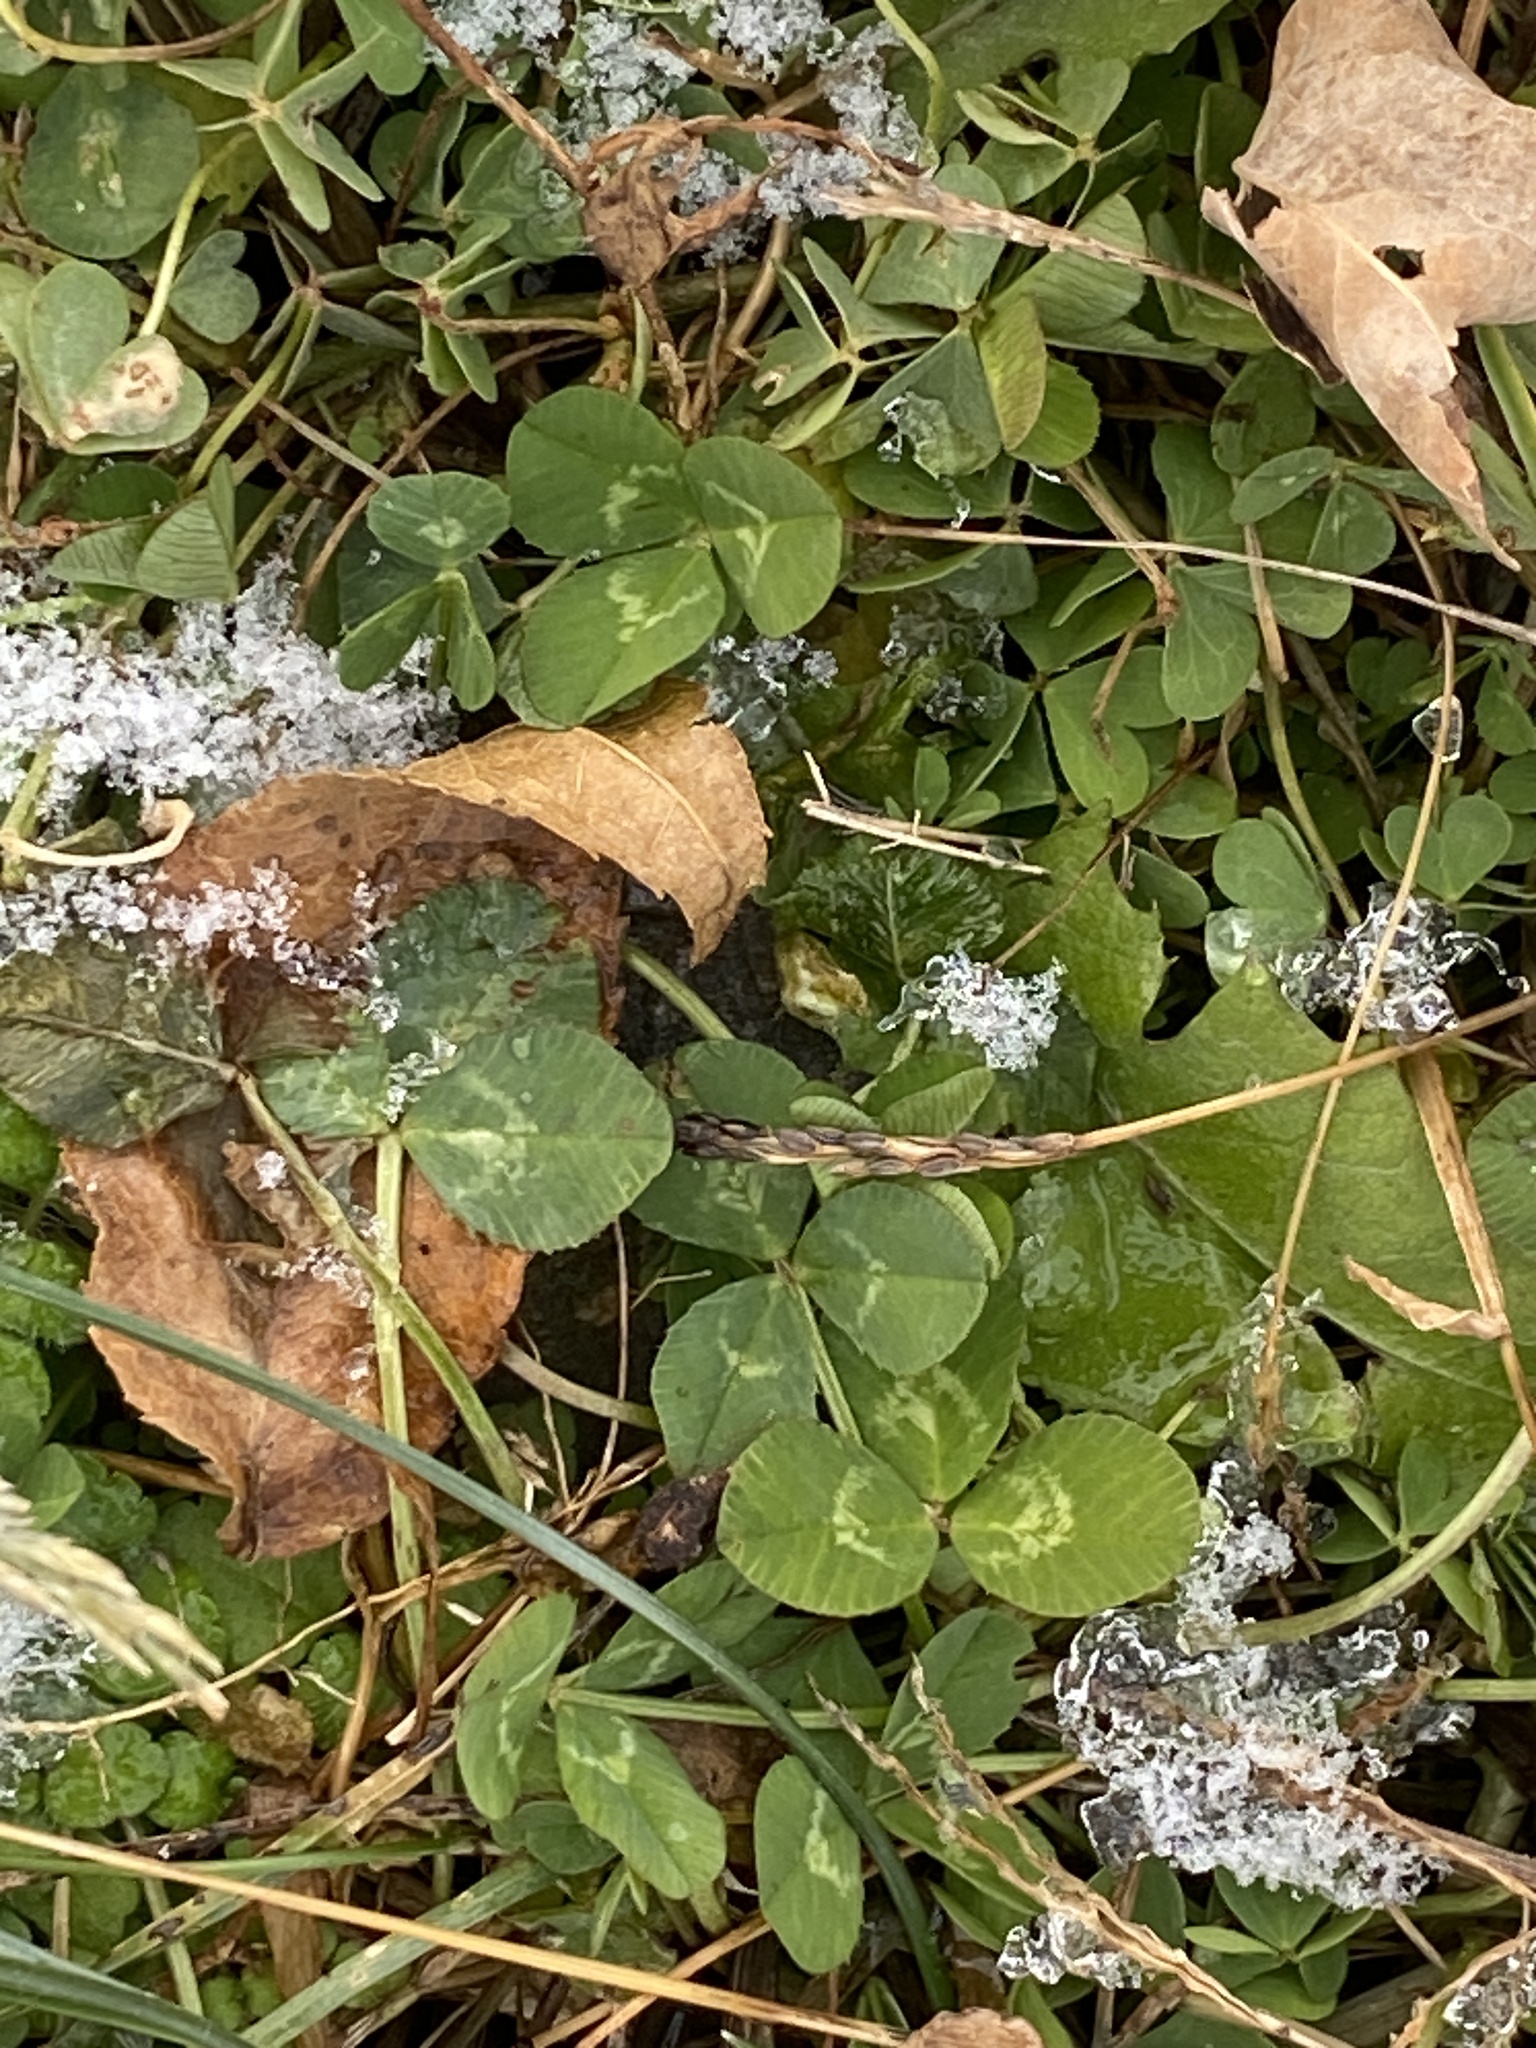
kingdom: Plantae
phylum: Tracheophyta
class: Magnoliopsida
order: Fabales
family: Fabaceae
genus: Trifolium
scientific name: Trifolium repens
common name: White clover
